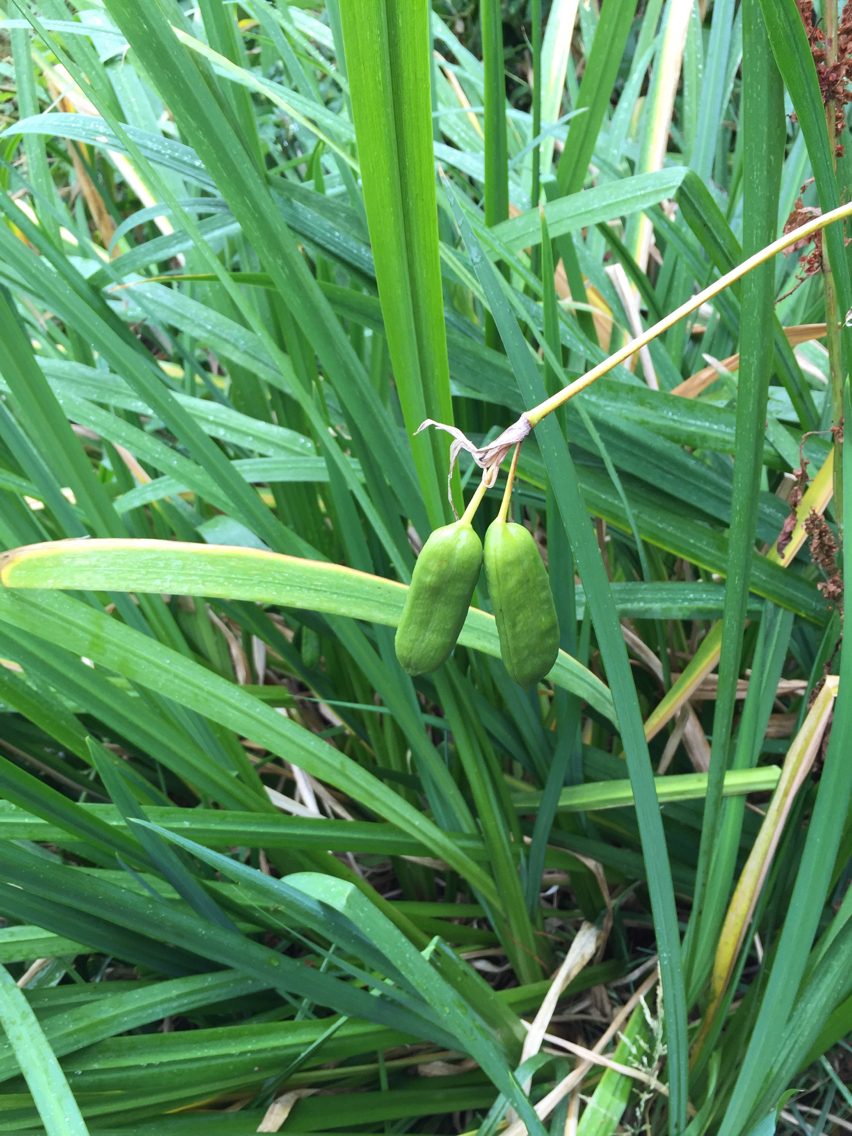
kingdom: Plantae
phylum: Tracheophyta
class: Liliopsida
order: Asparagales
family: Iridaceae
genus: Iris
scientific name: Iris pseudacorus
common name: Yellow flag
